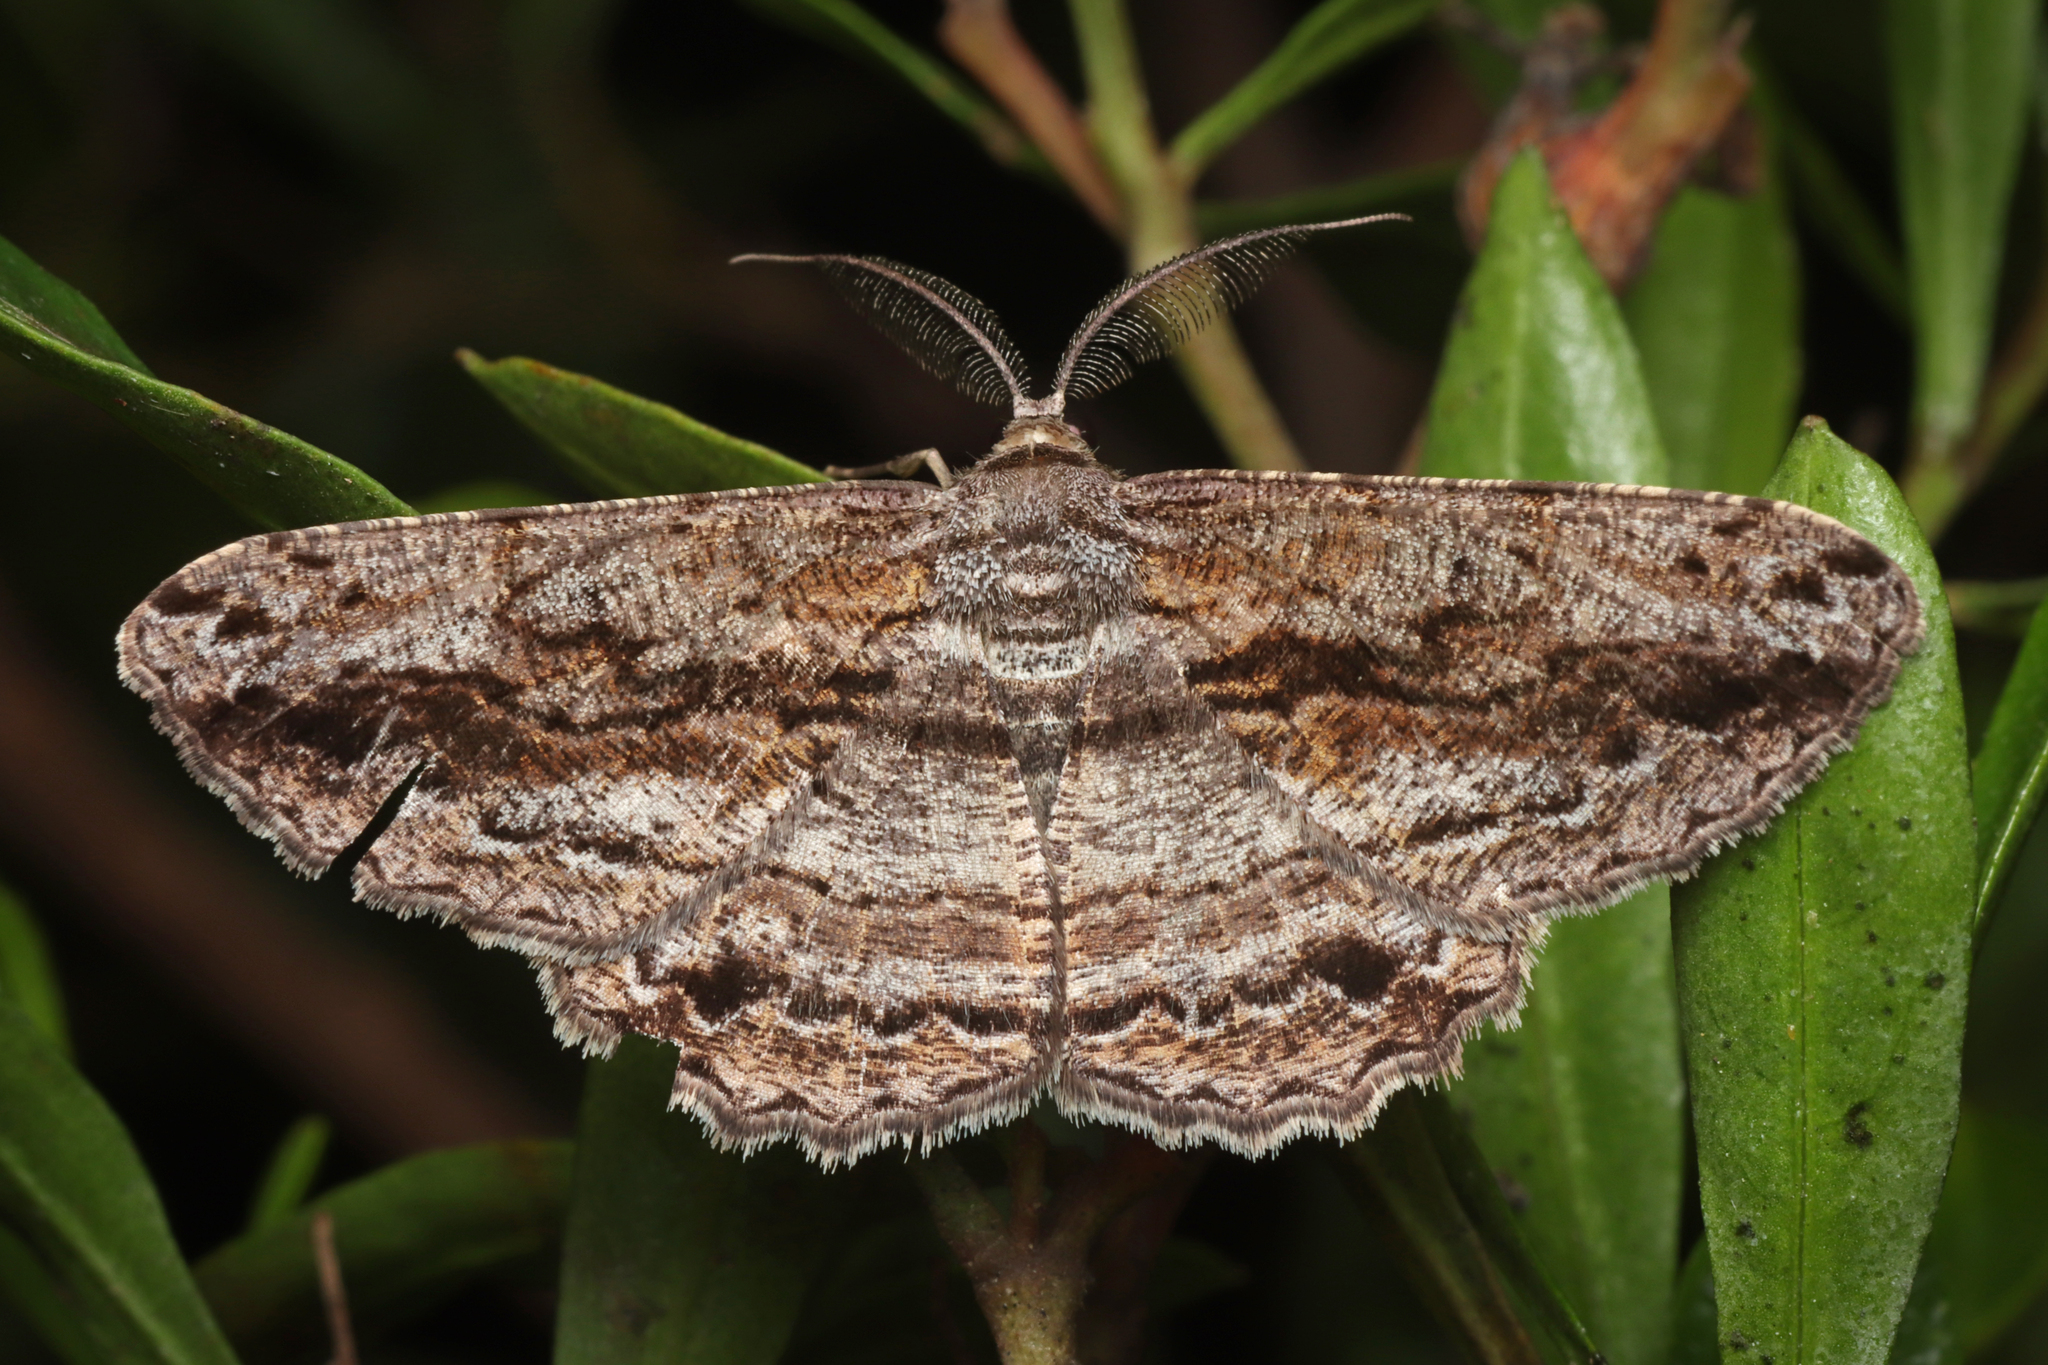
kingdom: Animalia
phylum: Arthropoda
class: Insecta
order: Lepidoptera
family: Geometridae
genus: Scioglyptis
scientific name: Scioglyptis chionomera
